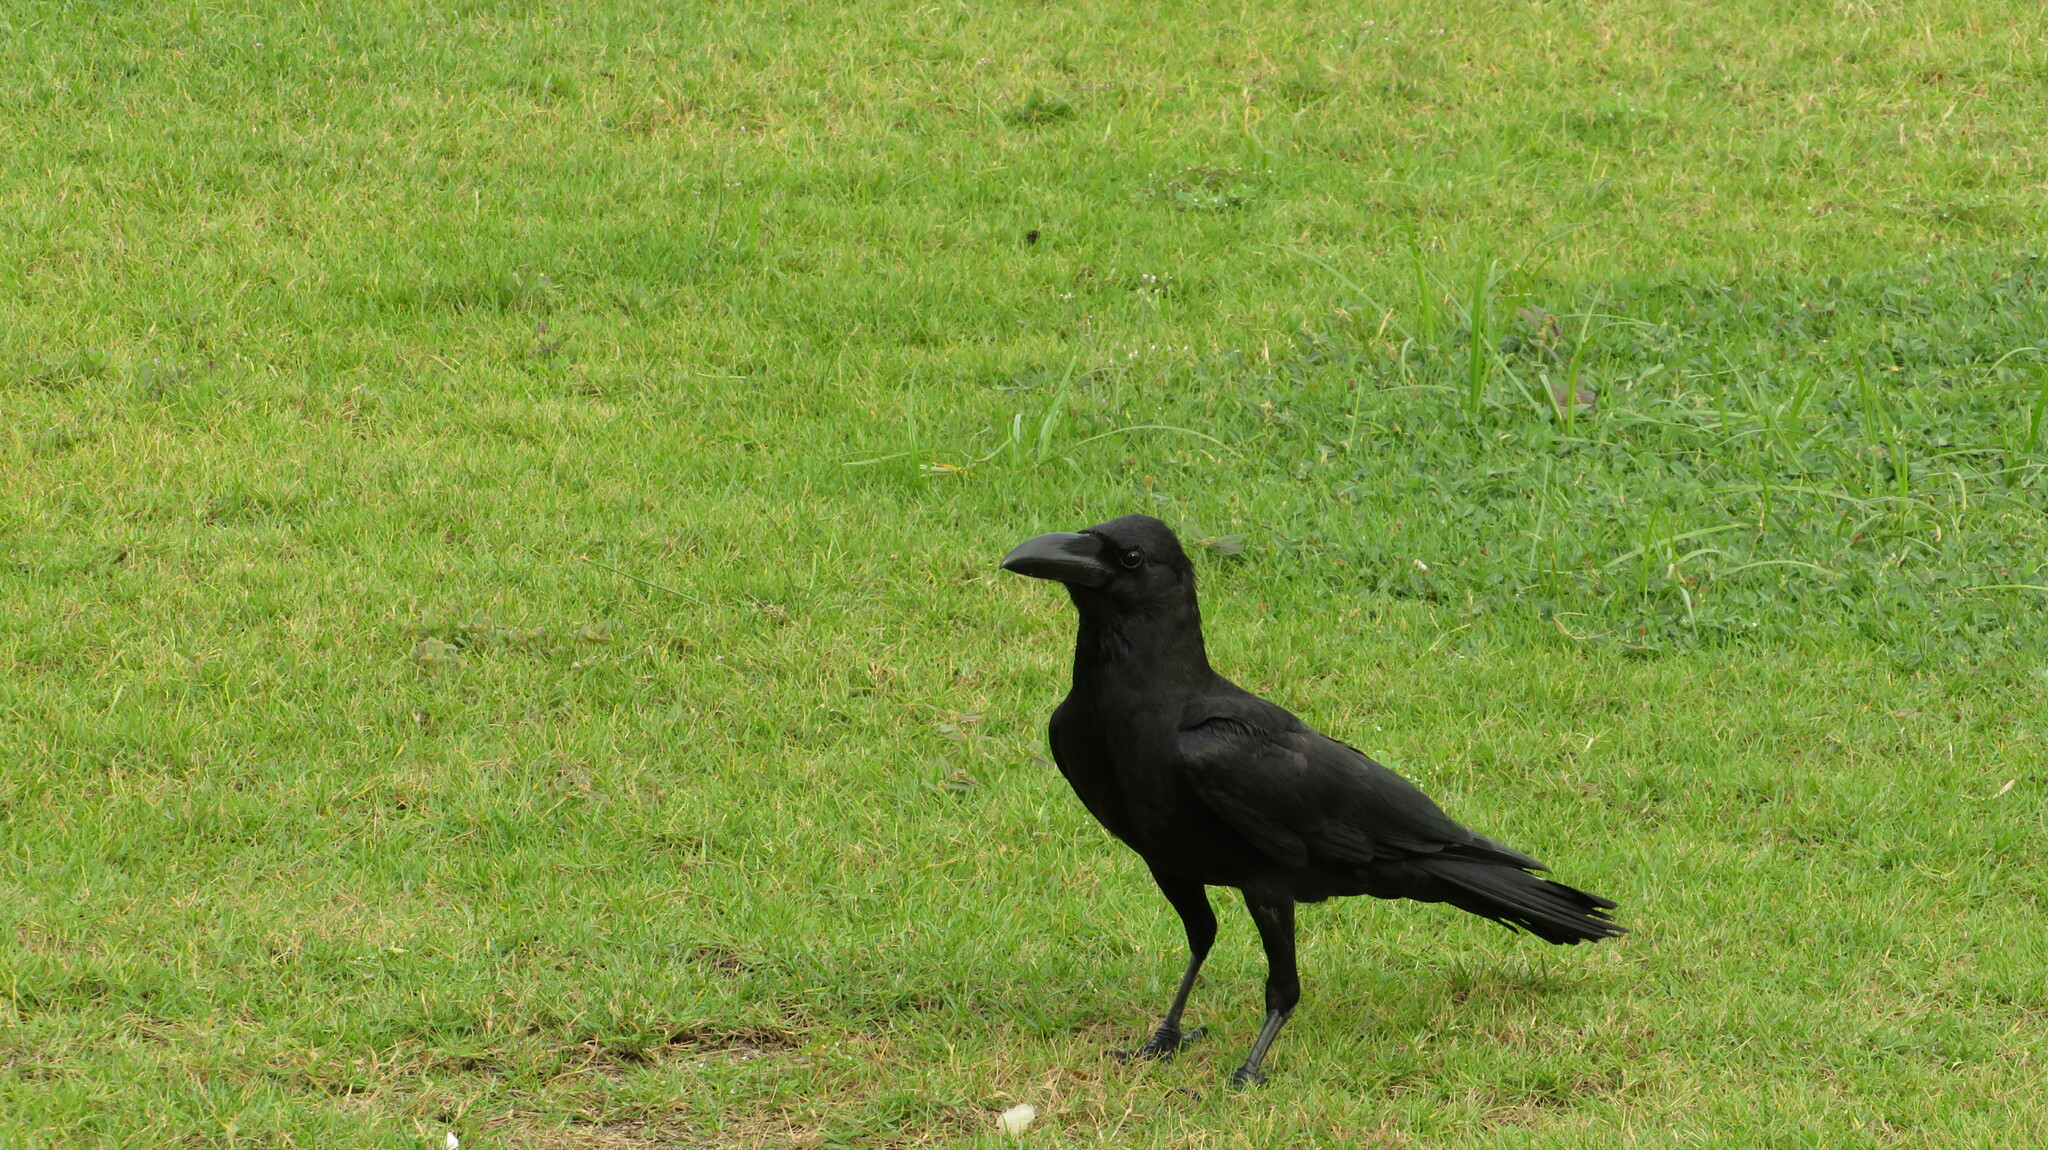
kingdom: Animalia
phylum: Chordata
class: Aves
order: Passeriformes
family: Corvidae
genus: Corvus
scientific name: Corvus macrorhynchos
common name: Large-billed crow
